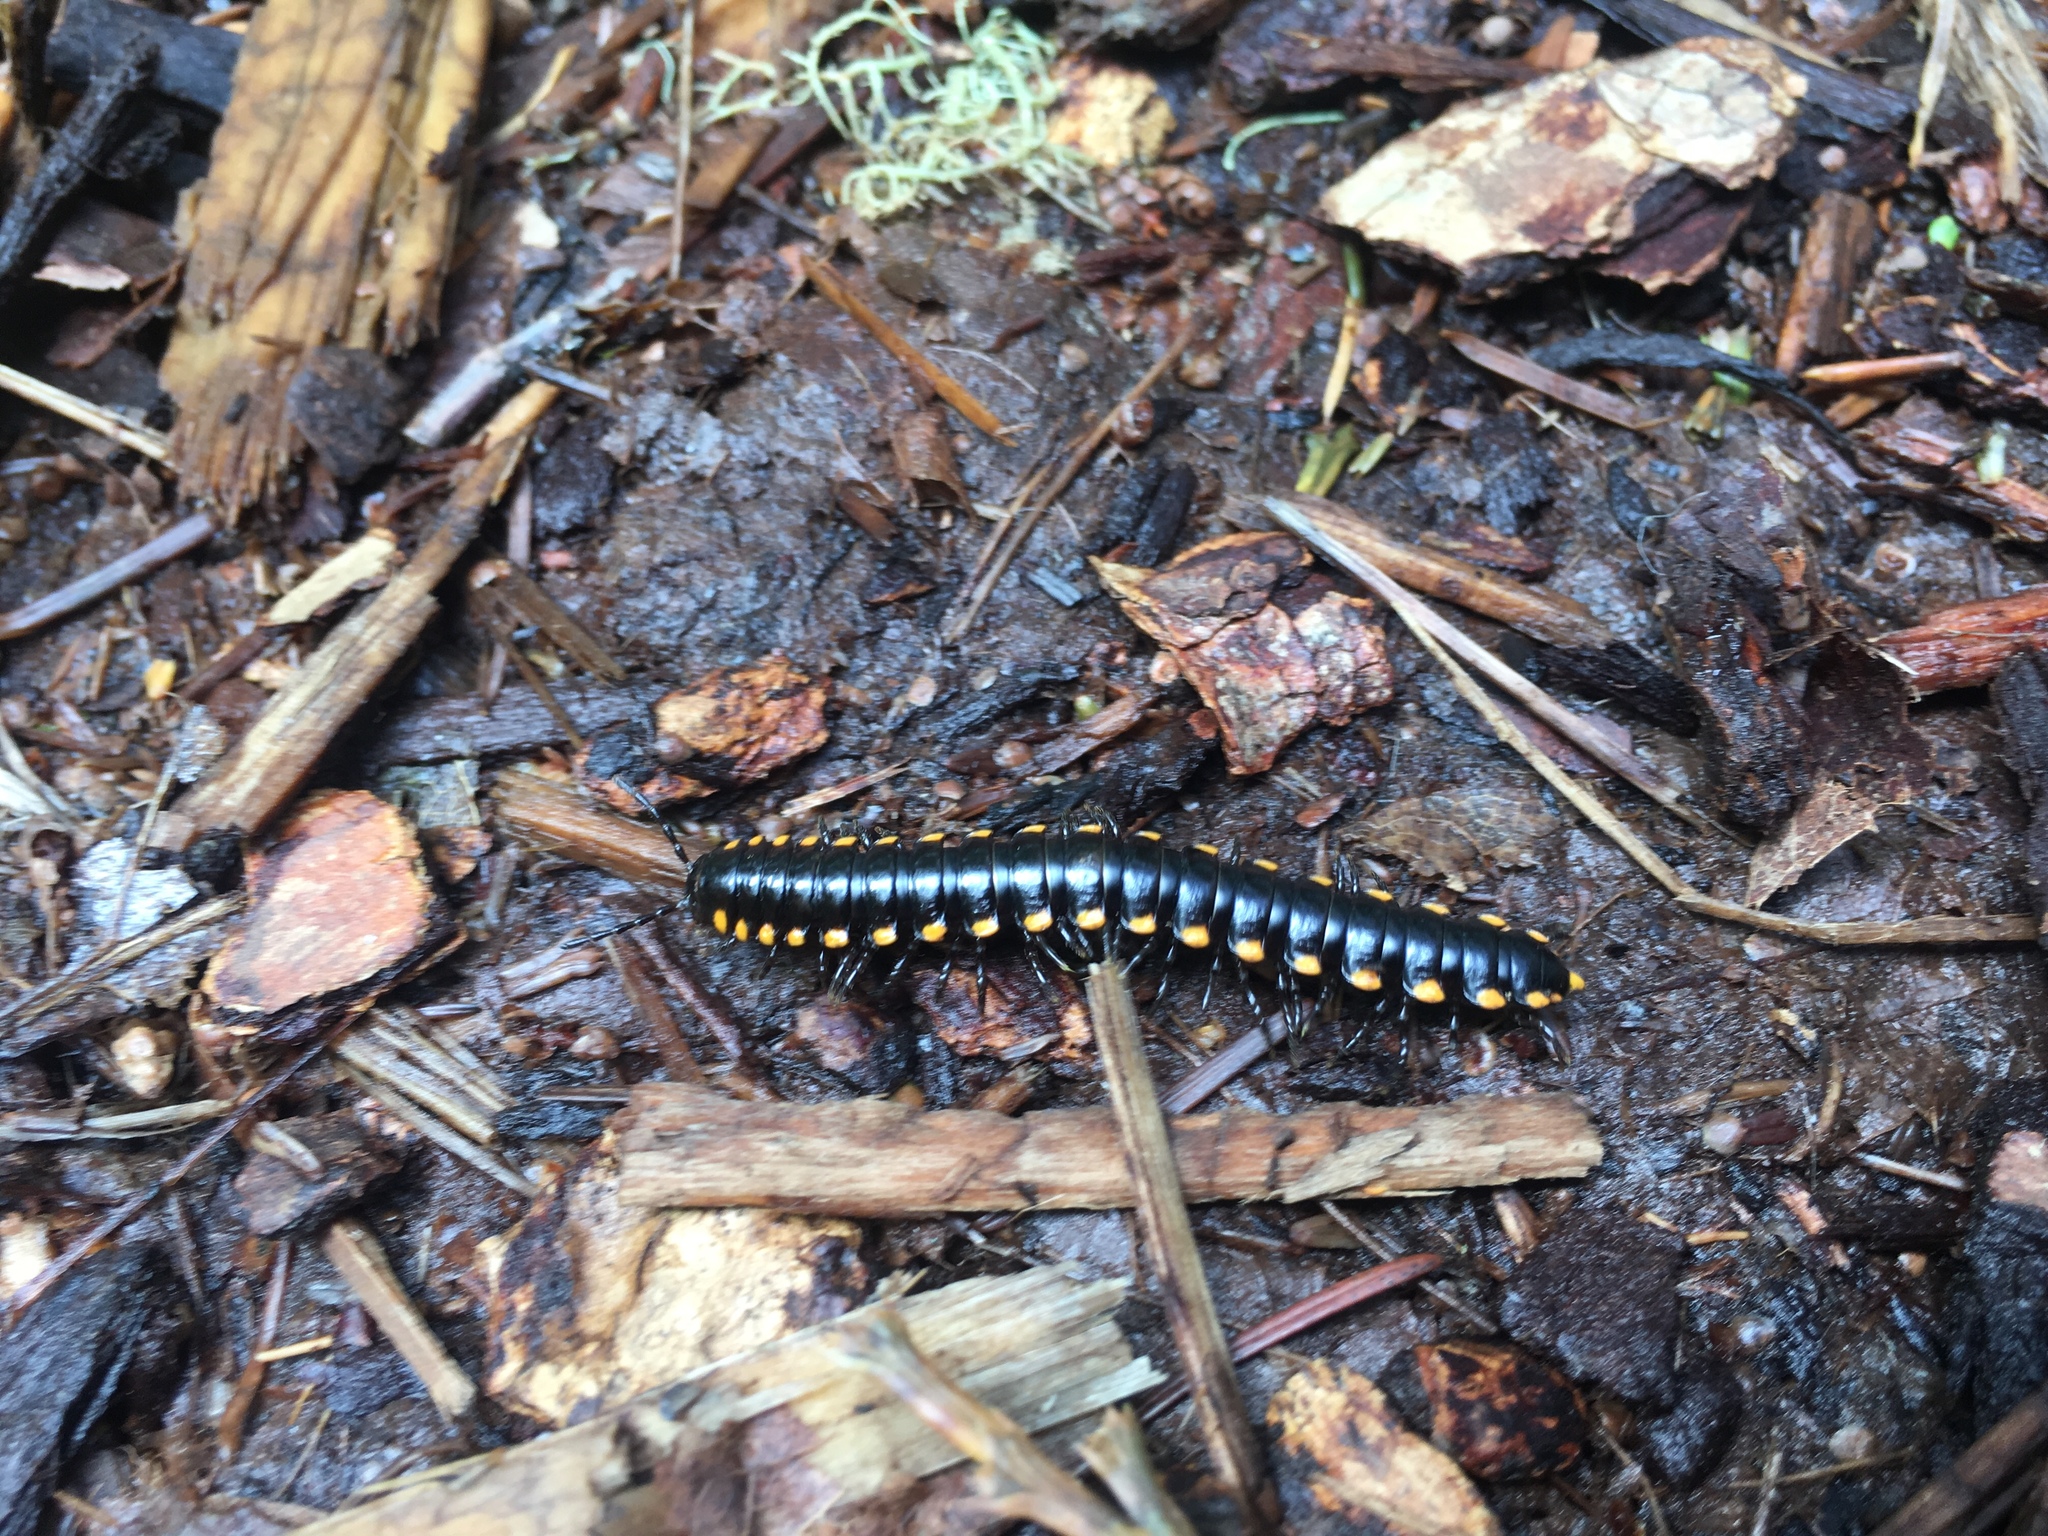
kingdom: Animalia
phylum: Arthropoda
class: Diplopoda
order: Polydesmida
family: Xystodesmidae
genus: Harpaphe
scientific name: Harpaphe haydeniana
